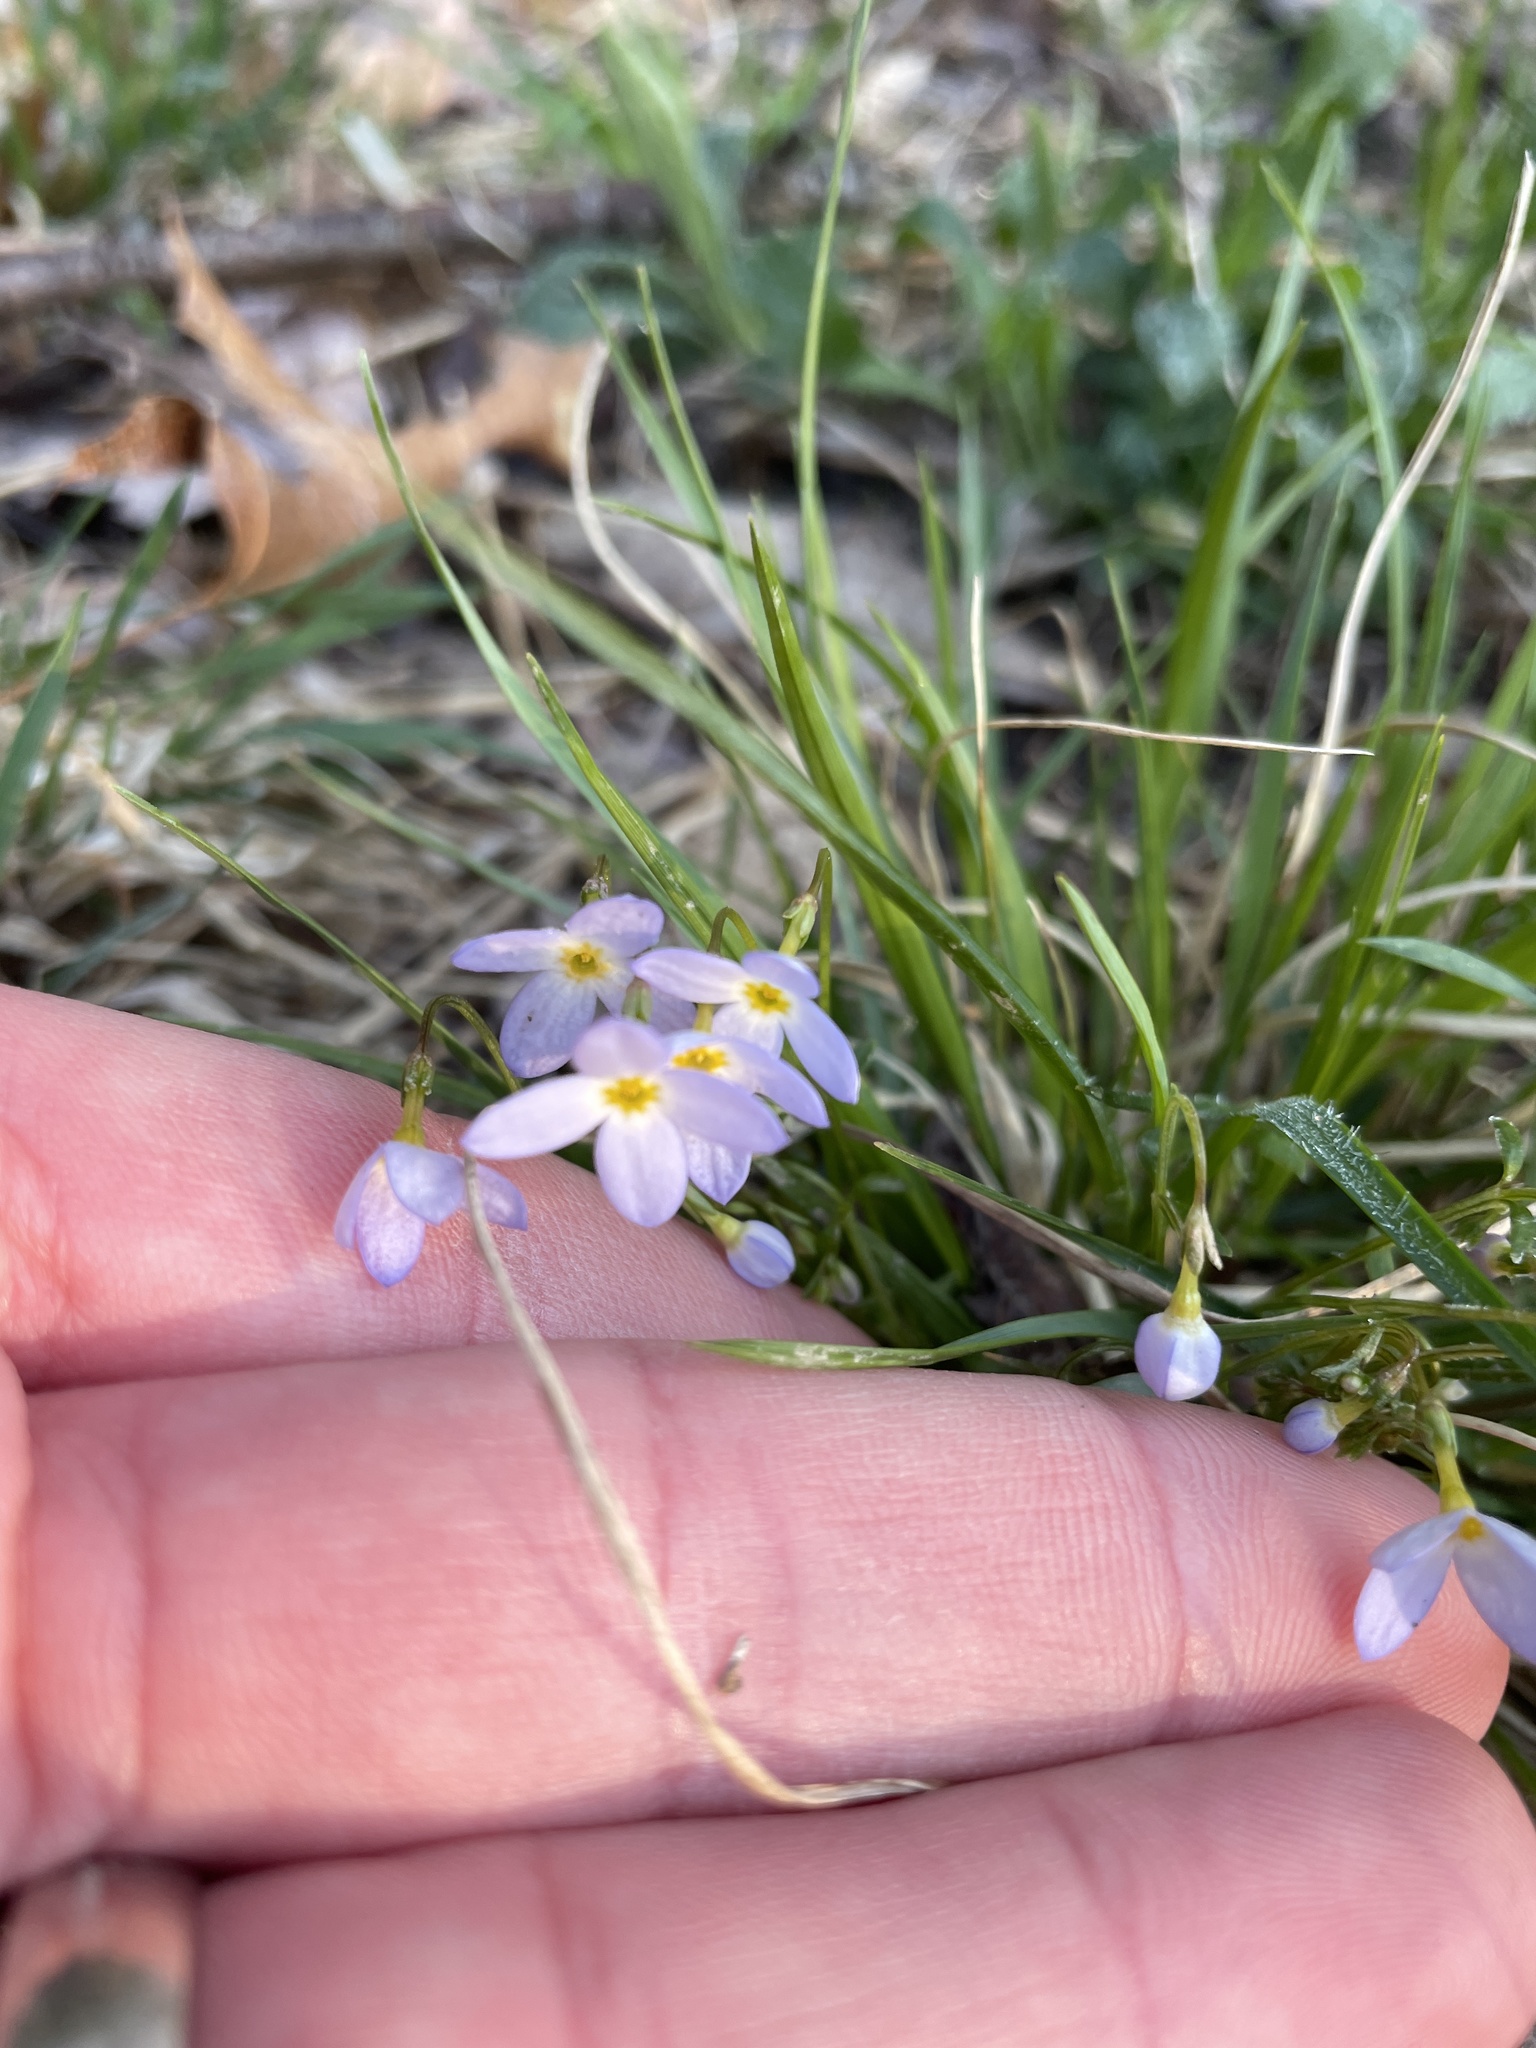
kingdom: Plantae
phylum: Tracheophyta
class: Magnoliopsida
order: Gentianales
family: Rubiaceae
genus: Houstonia
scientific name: Houstonia caerulea
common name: Bluets
